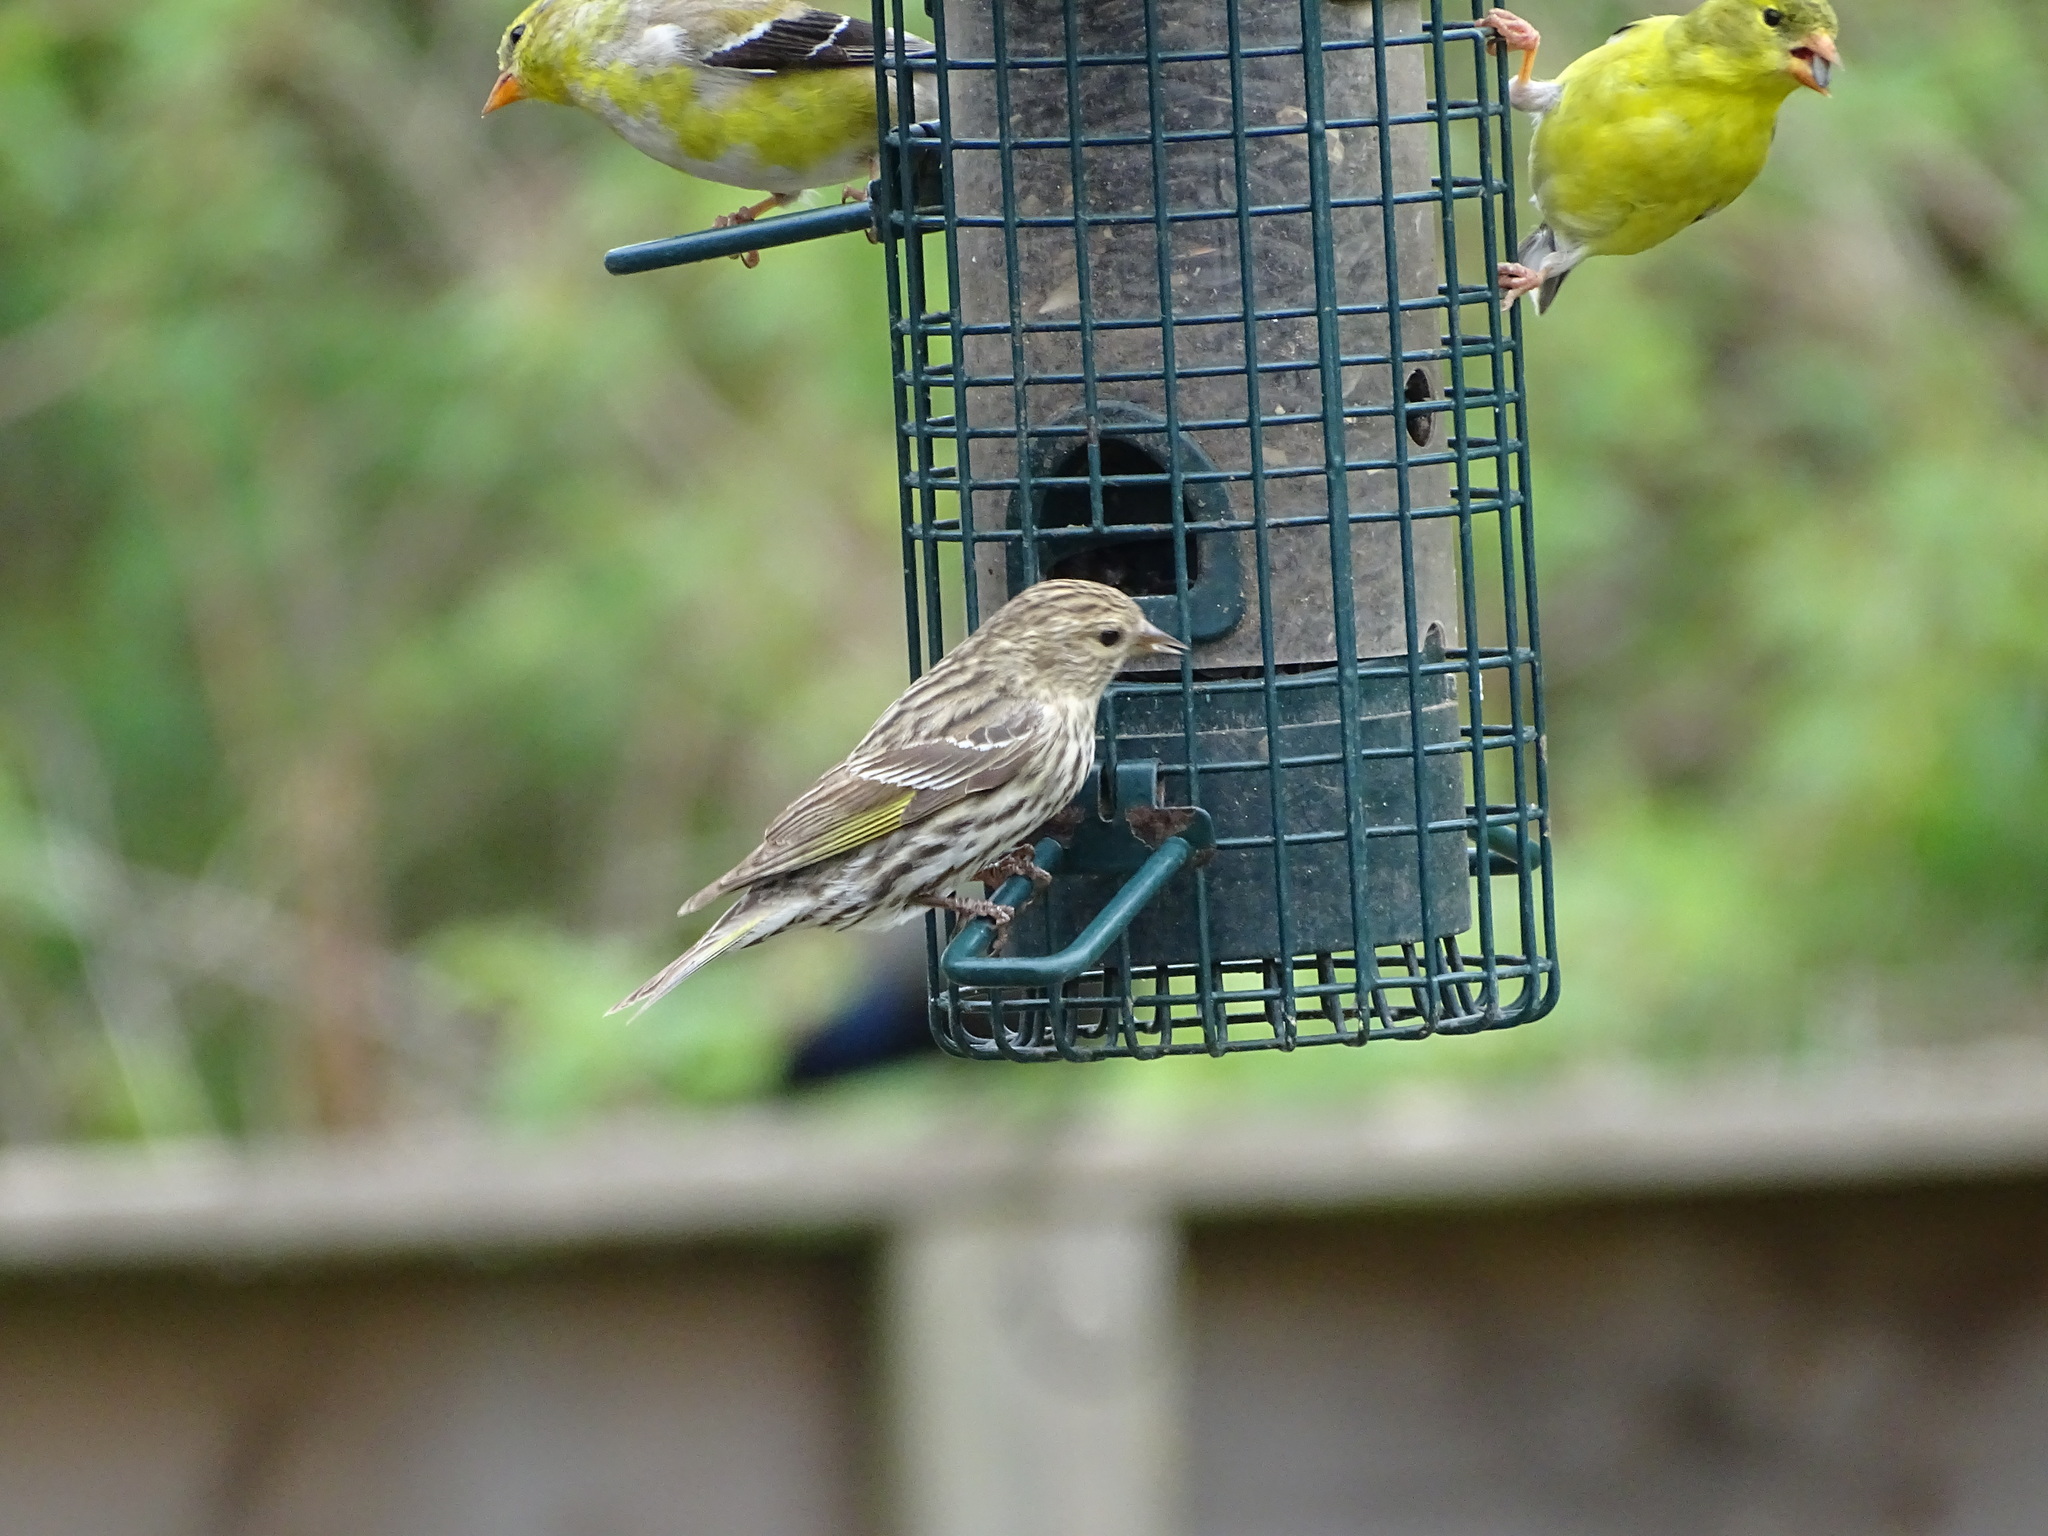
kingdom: Animalia
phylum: Chordata
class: Aves
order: Passeriformes
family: Fringillidae
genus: Spinus
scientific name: Spinus pinus
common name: Pine siskin
